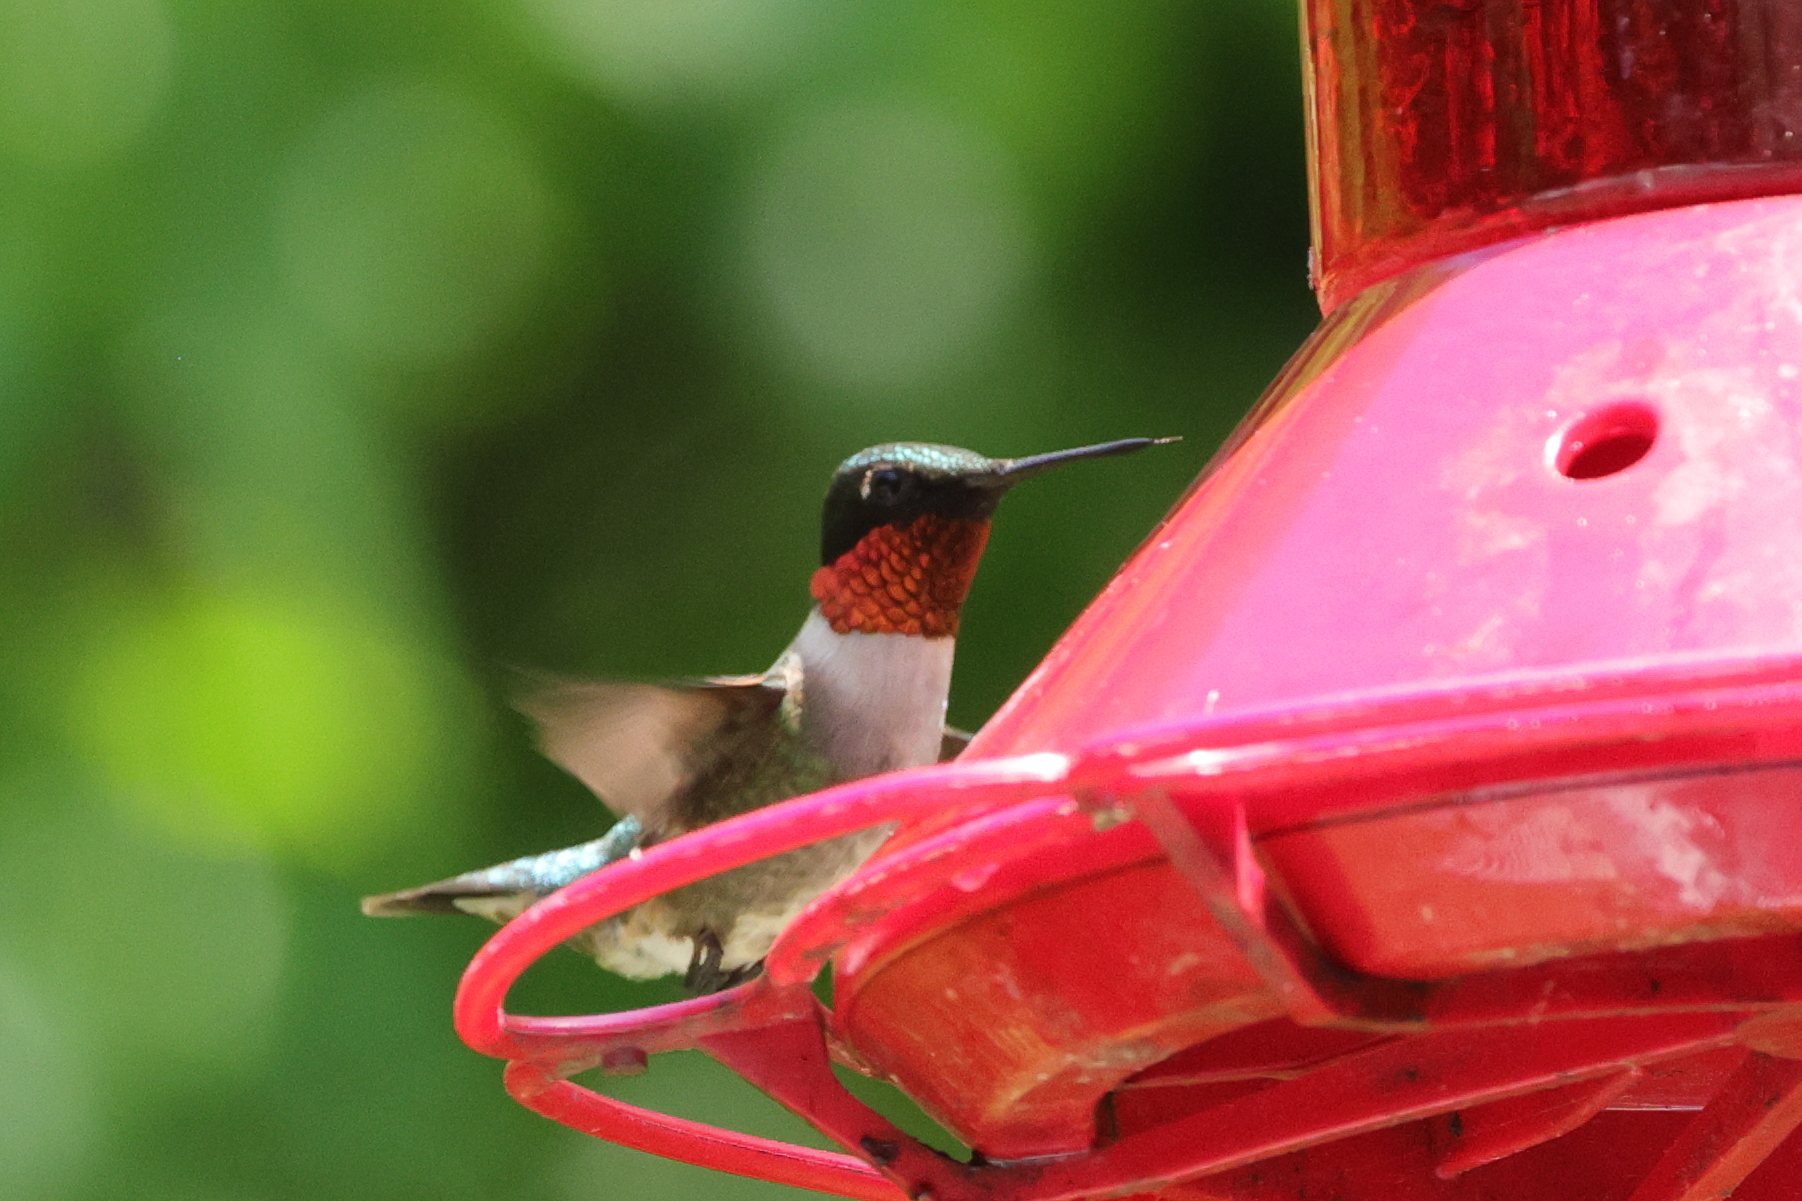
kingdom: Animalia
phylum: Chordata
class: Aves
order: Apodiformes
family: Trochilidae
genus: Archilochus
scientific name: Archilochus colubris
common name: Ruby-throated hummingbird
